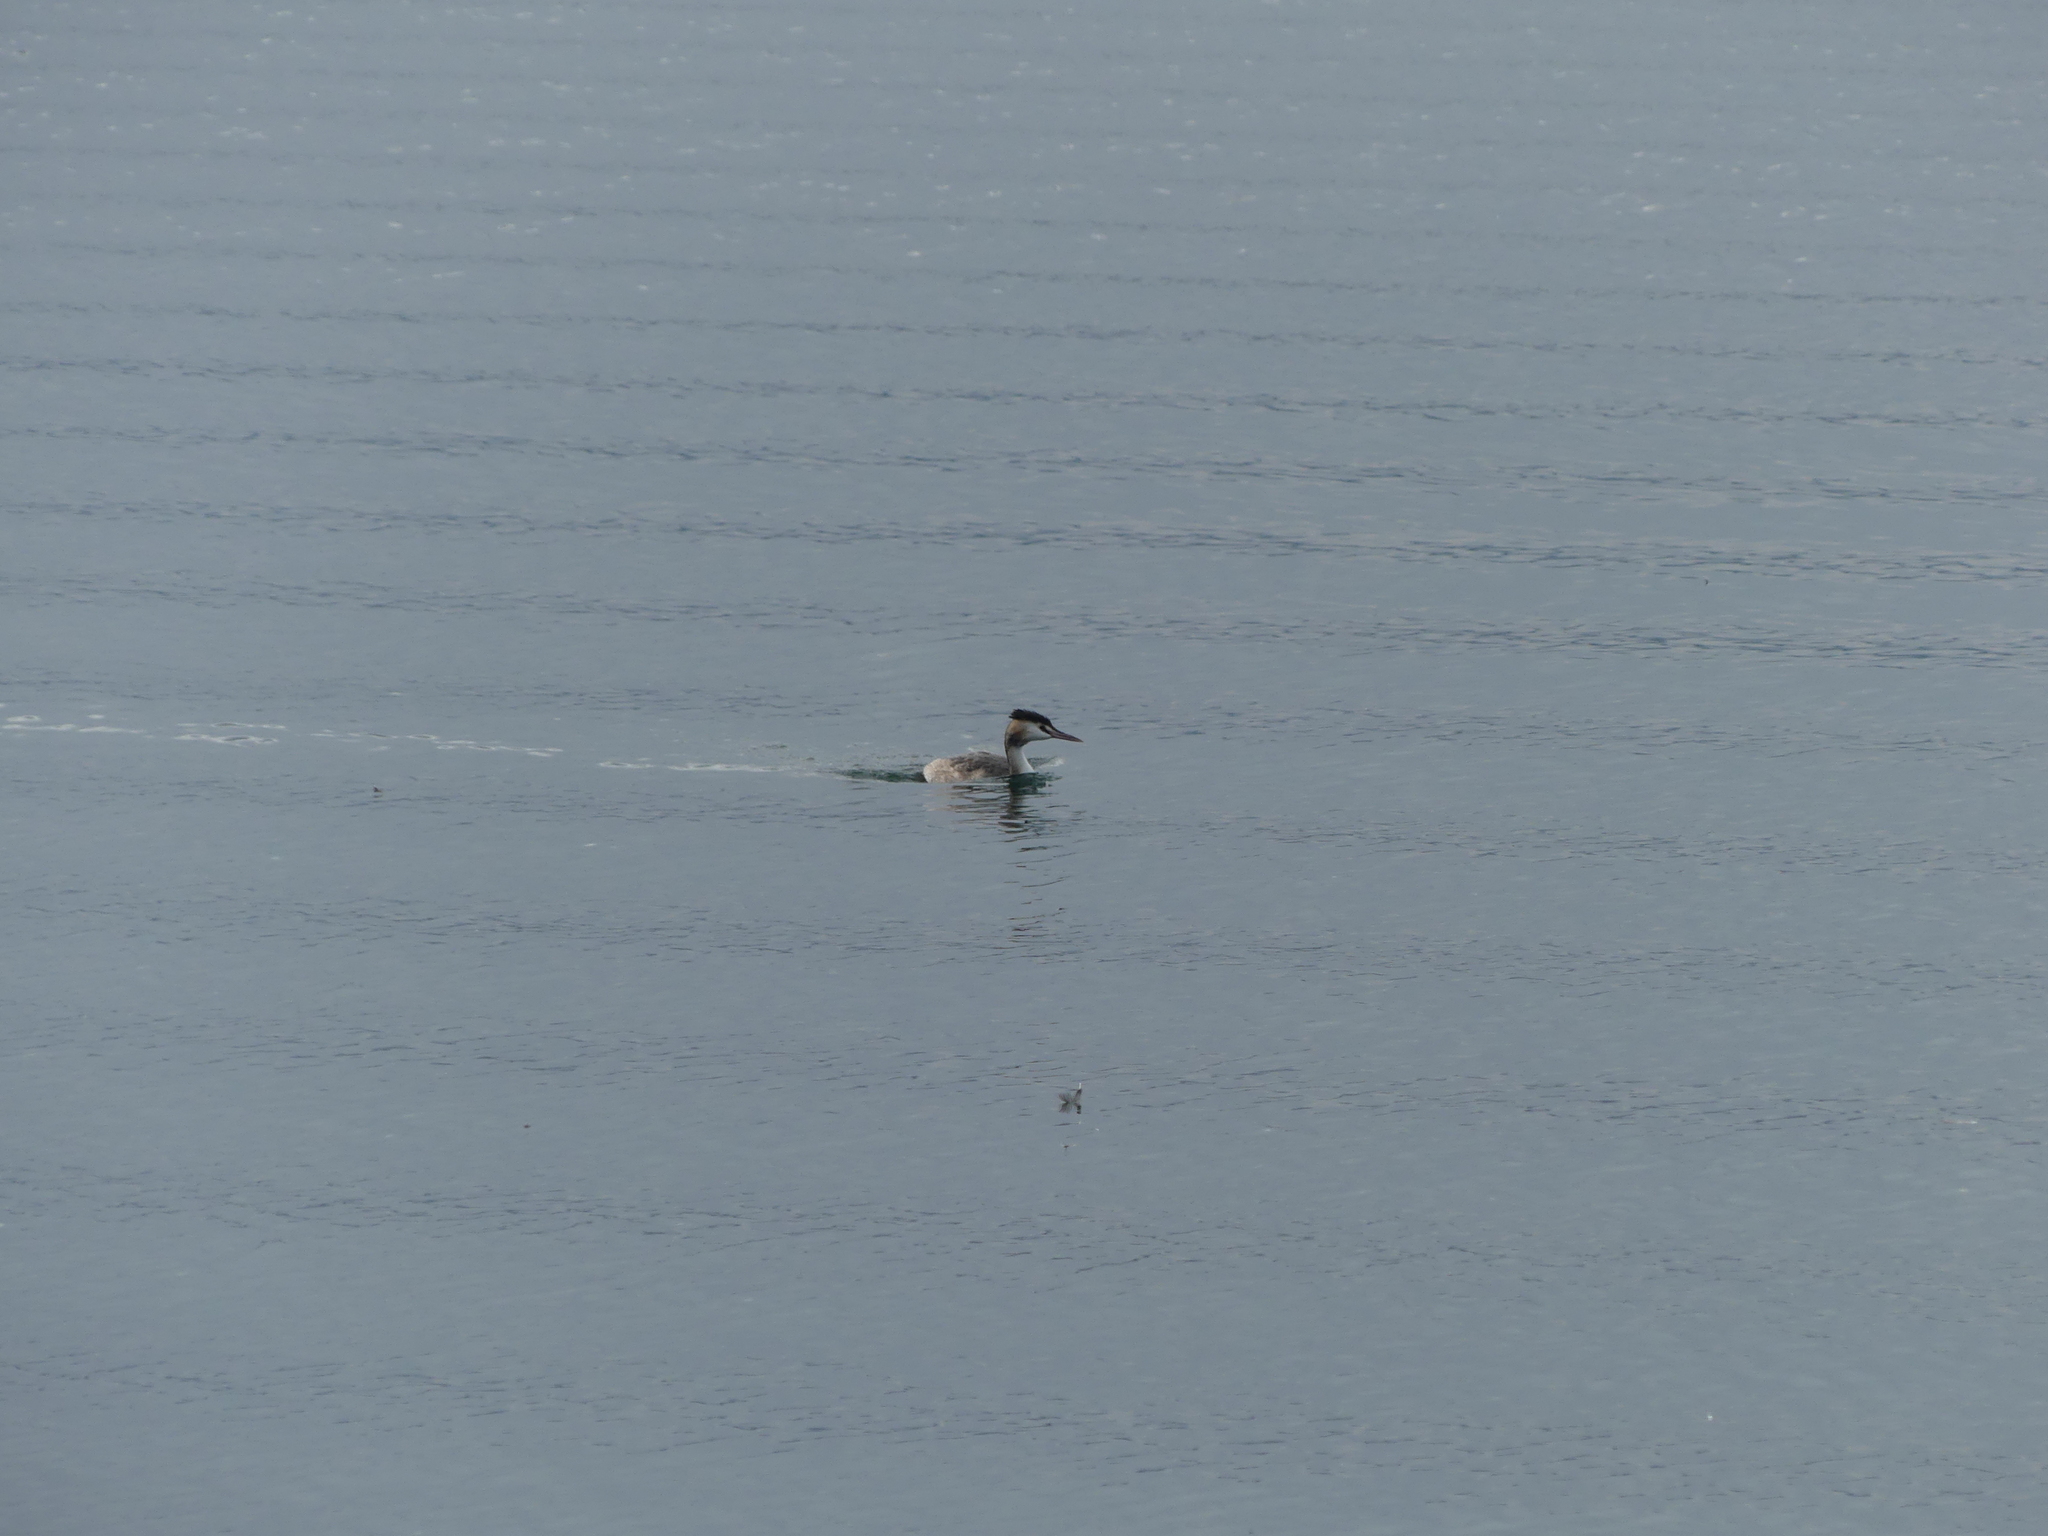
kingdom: Animalia
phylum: Chordata
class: Aves
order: Podicipediformes
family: Podicipedidae
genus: Podiceps
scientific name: Podiceps cristatus
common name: Great crested grebe
